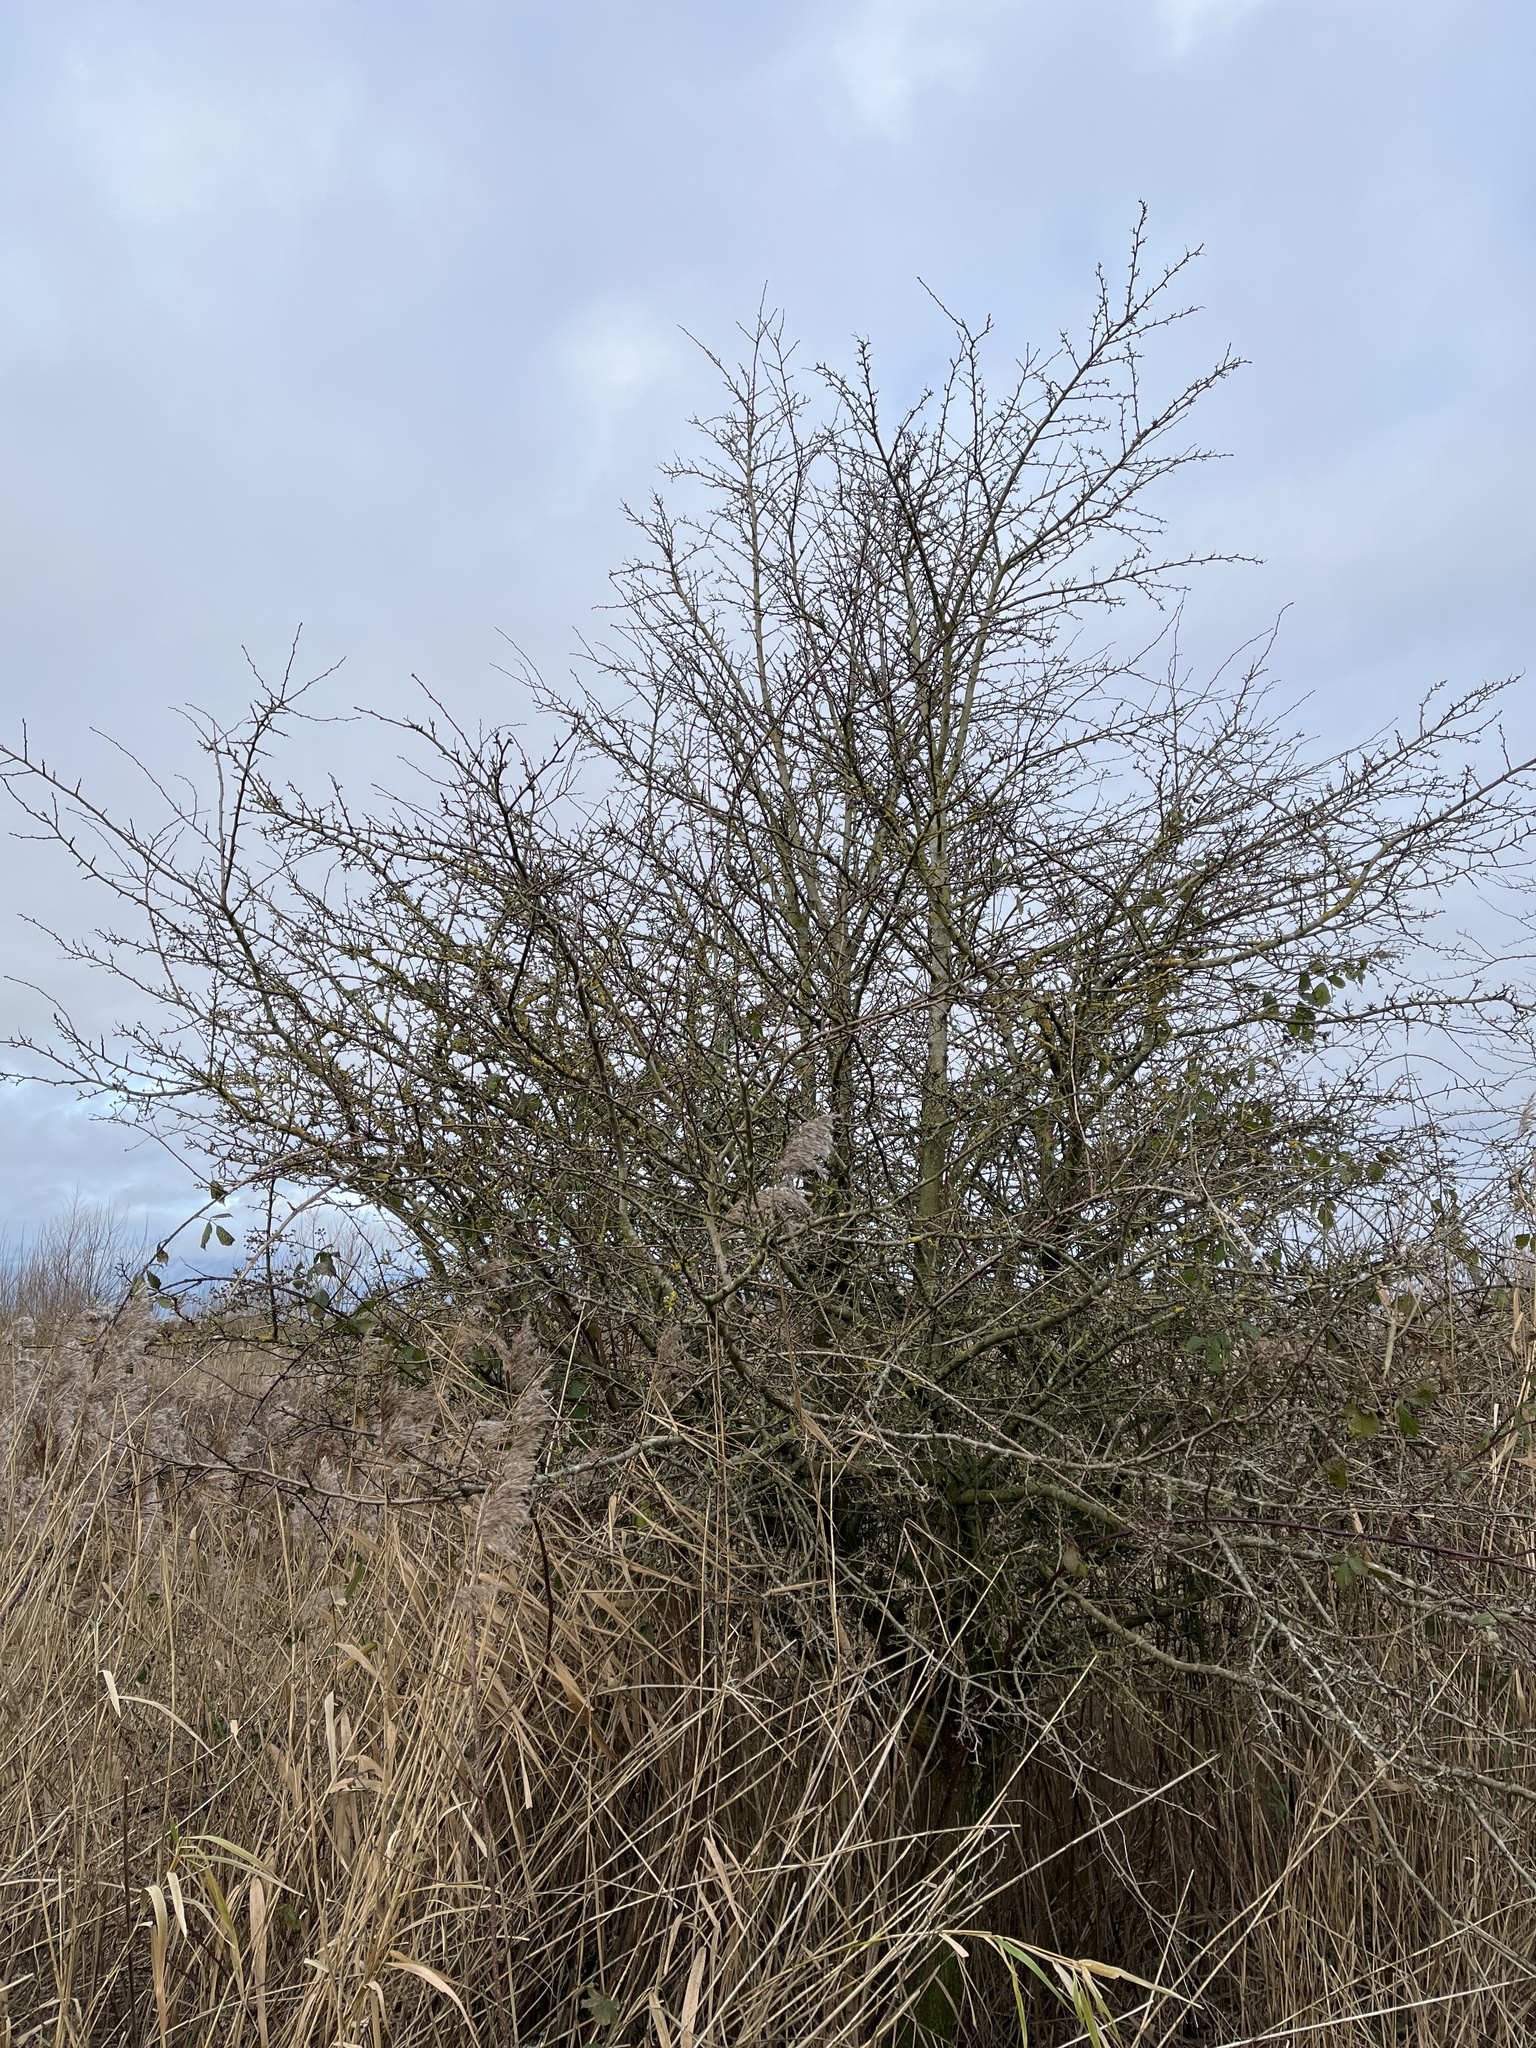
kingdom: Plantae
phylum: Tracheophyta
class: Magnoliopsida
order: Rosales
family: Rosaceae
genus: Crataegus
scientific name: Crataegus monogyna
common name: Hawthorn
